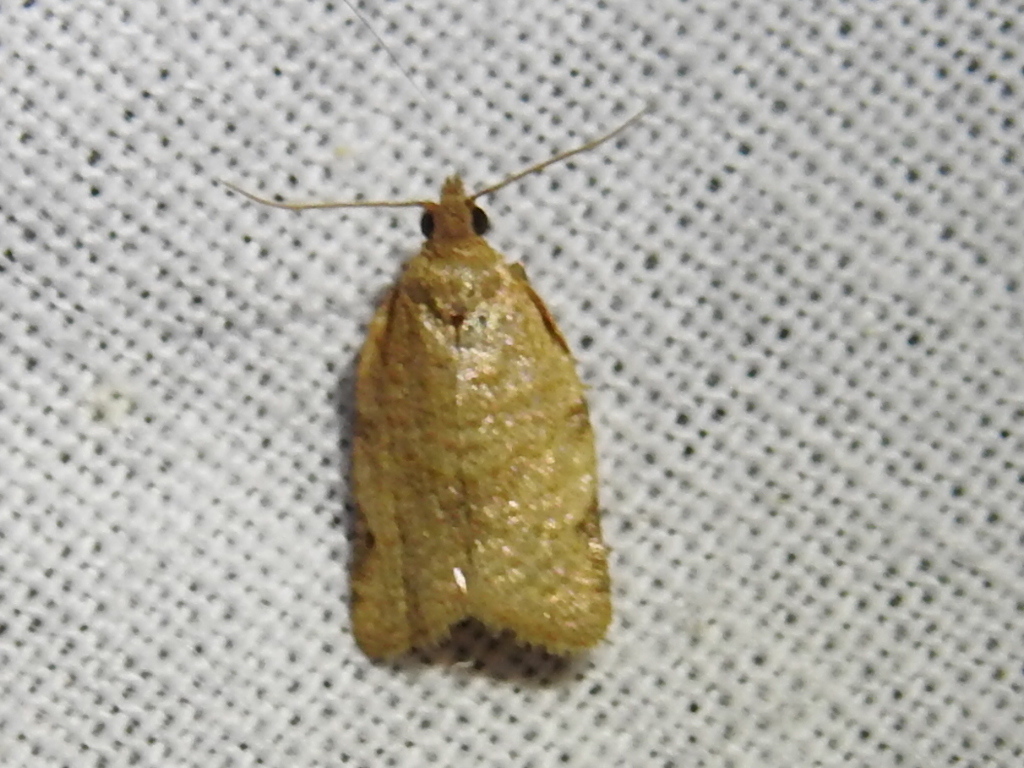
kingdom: Animalia
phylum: Arthropoda
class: Insecta
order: Lepidoptera
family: Tortricidae
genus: Clepsis
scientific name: Clepsis virescana
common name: Greenish apple moth
